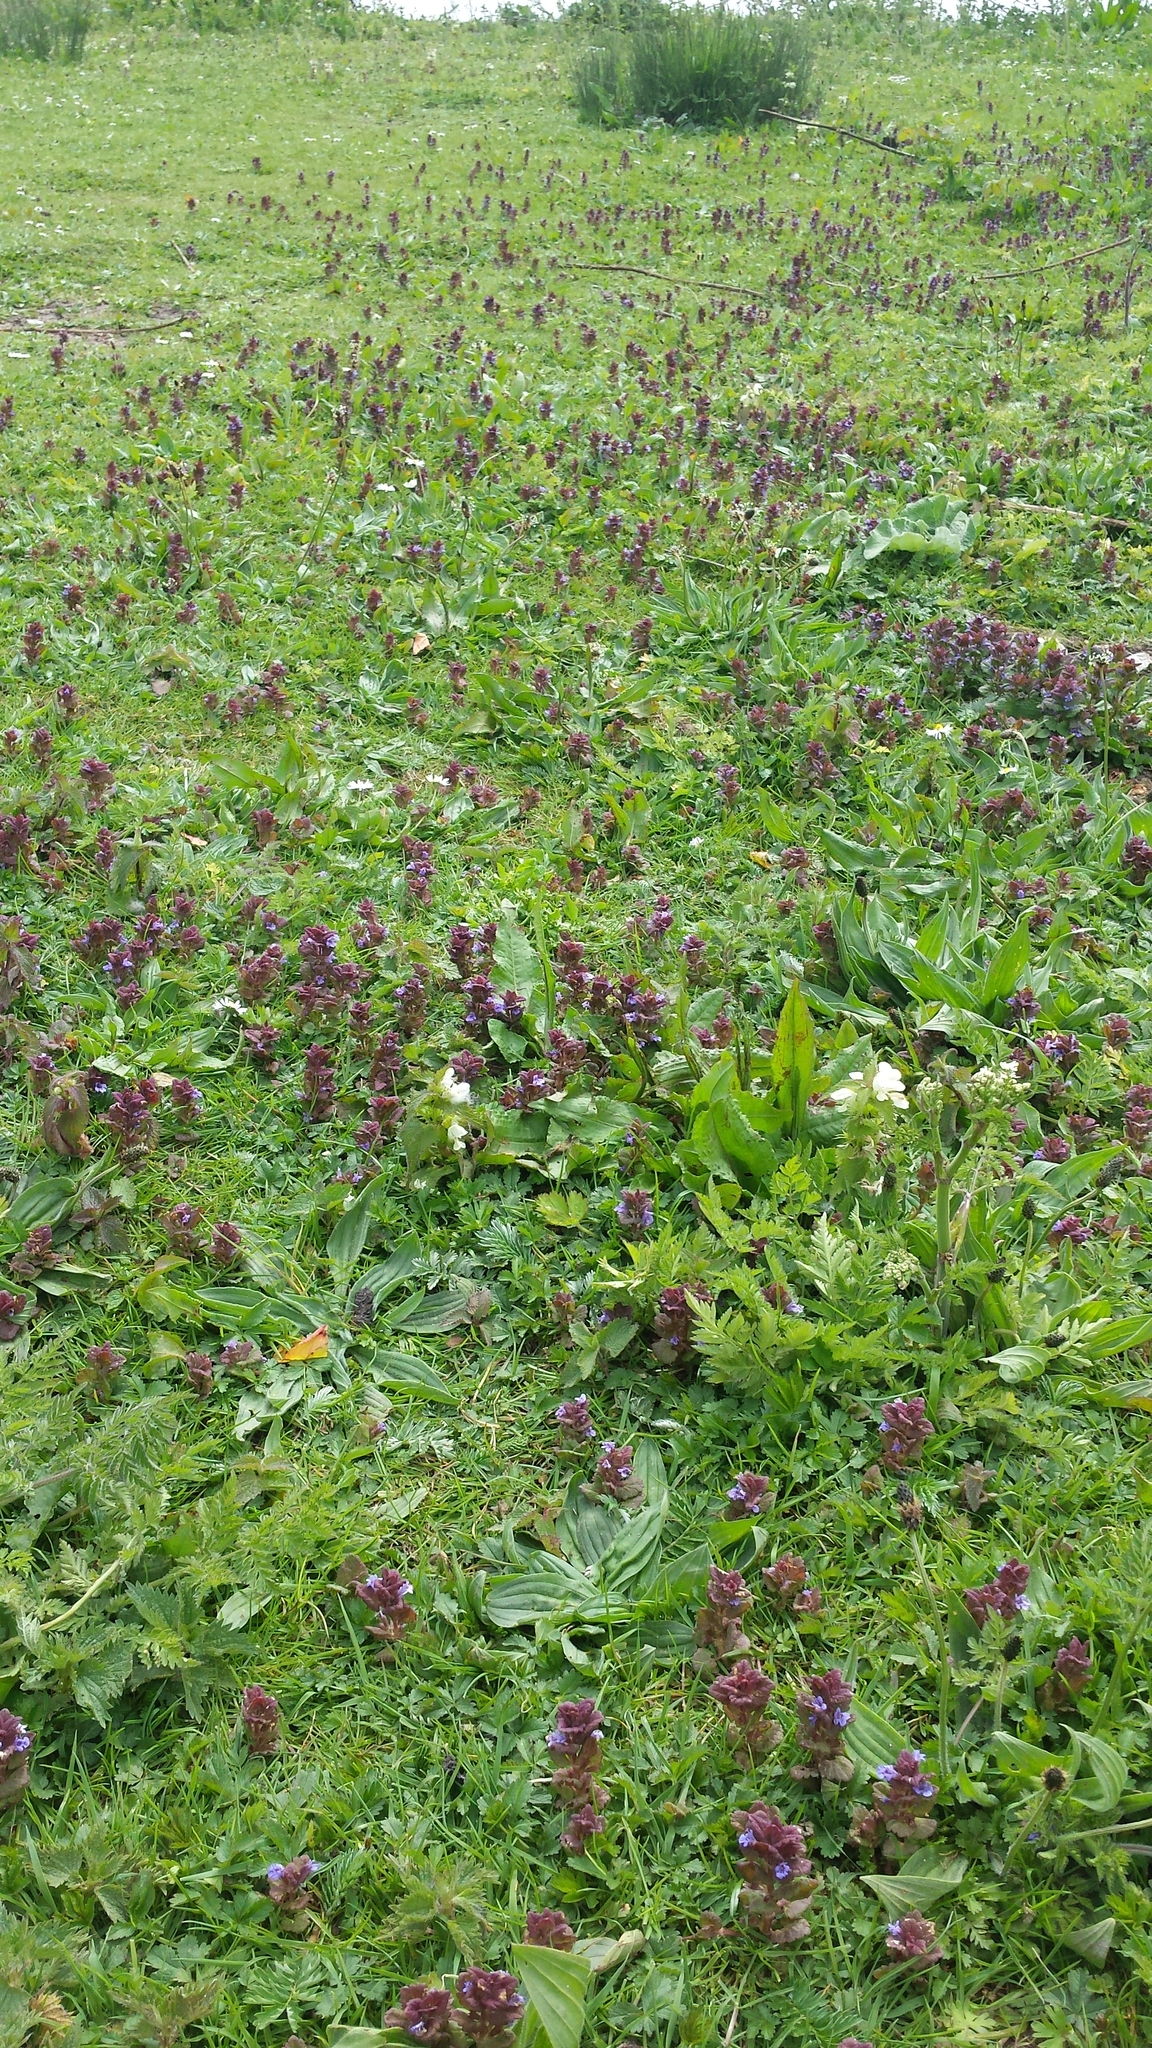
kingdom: Plantae
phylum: Tracheophyta
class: Magnoliopsida
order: Lamiales
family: Lamiaceae
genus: Glechoma
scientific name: Glechoma hederacea
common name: Ground ivy
